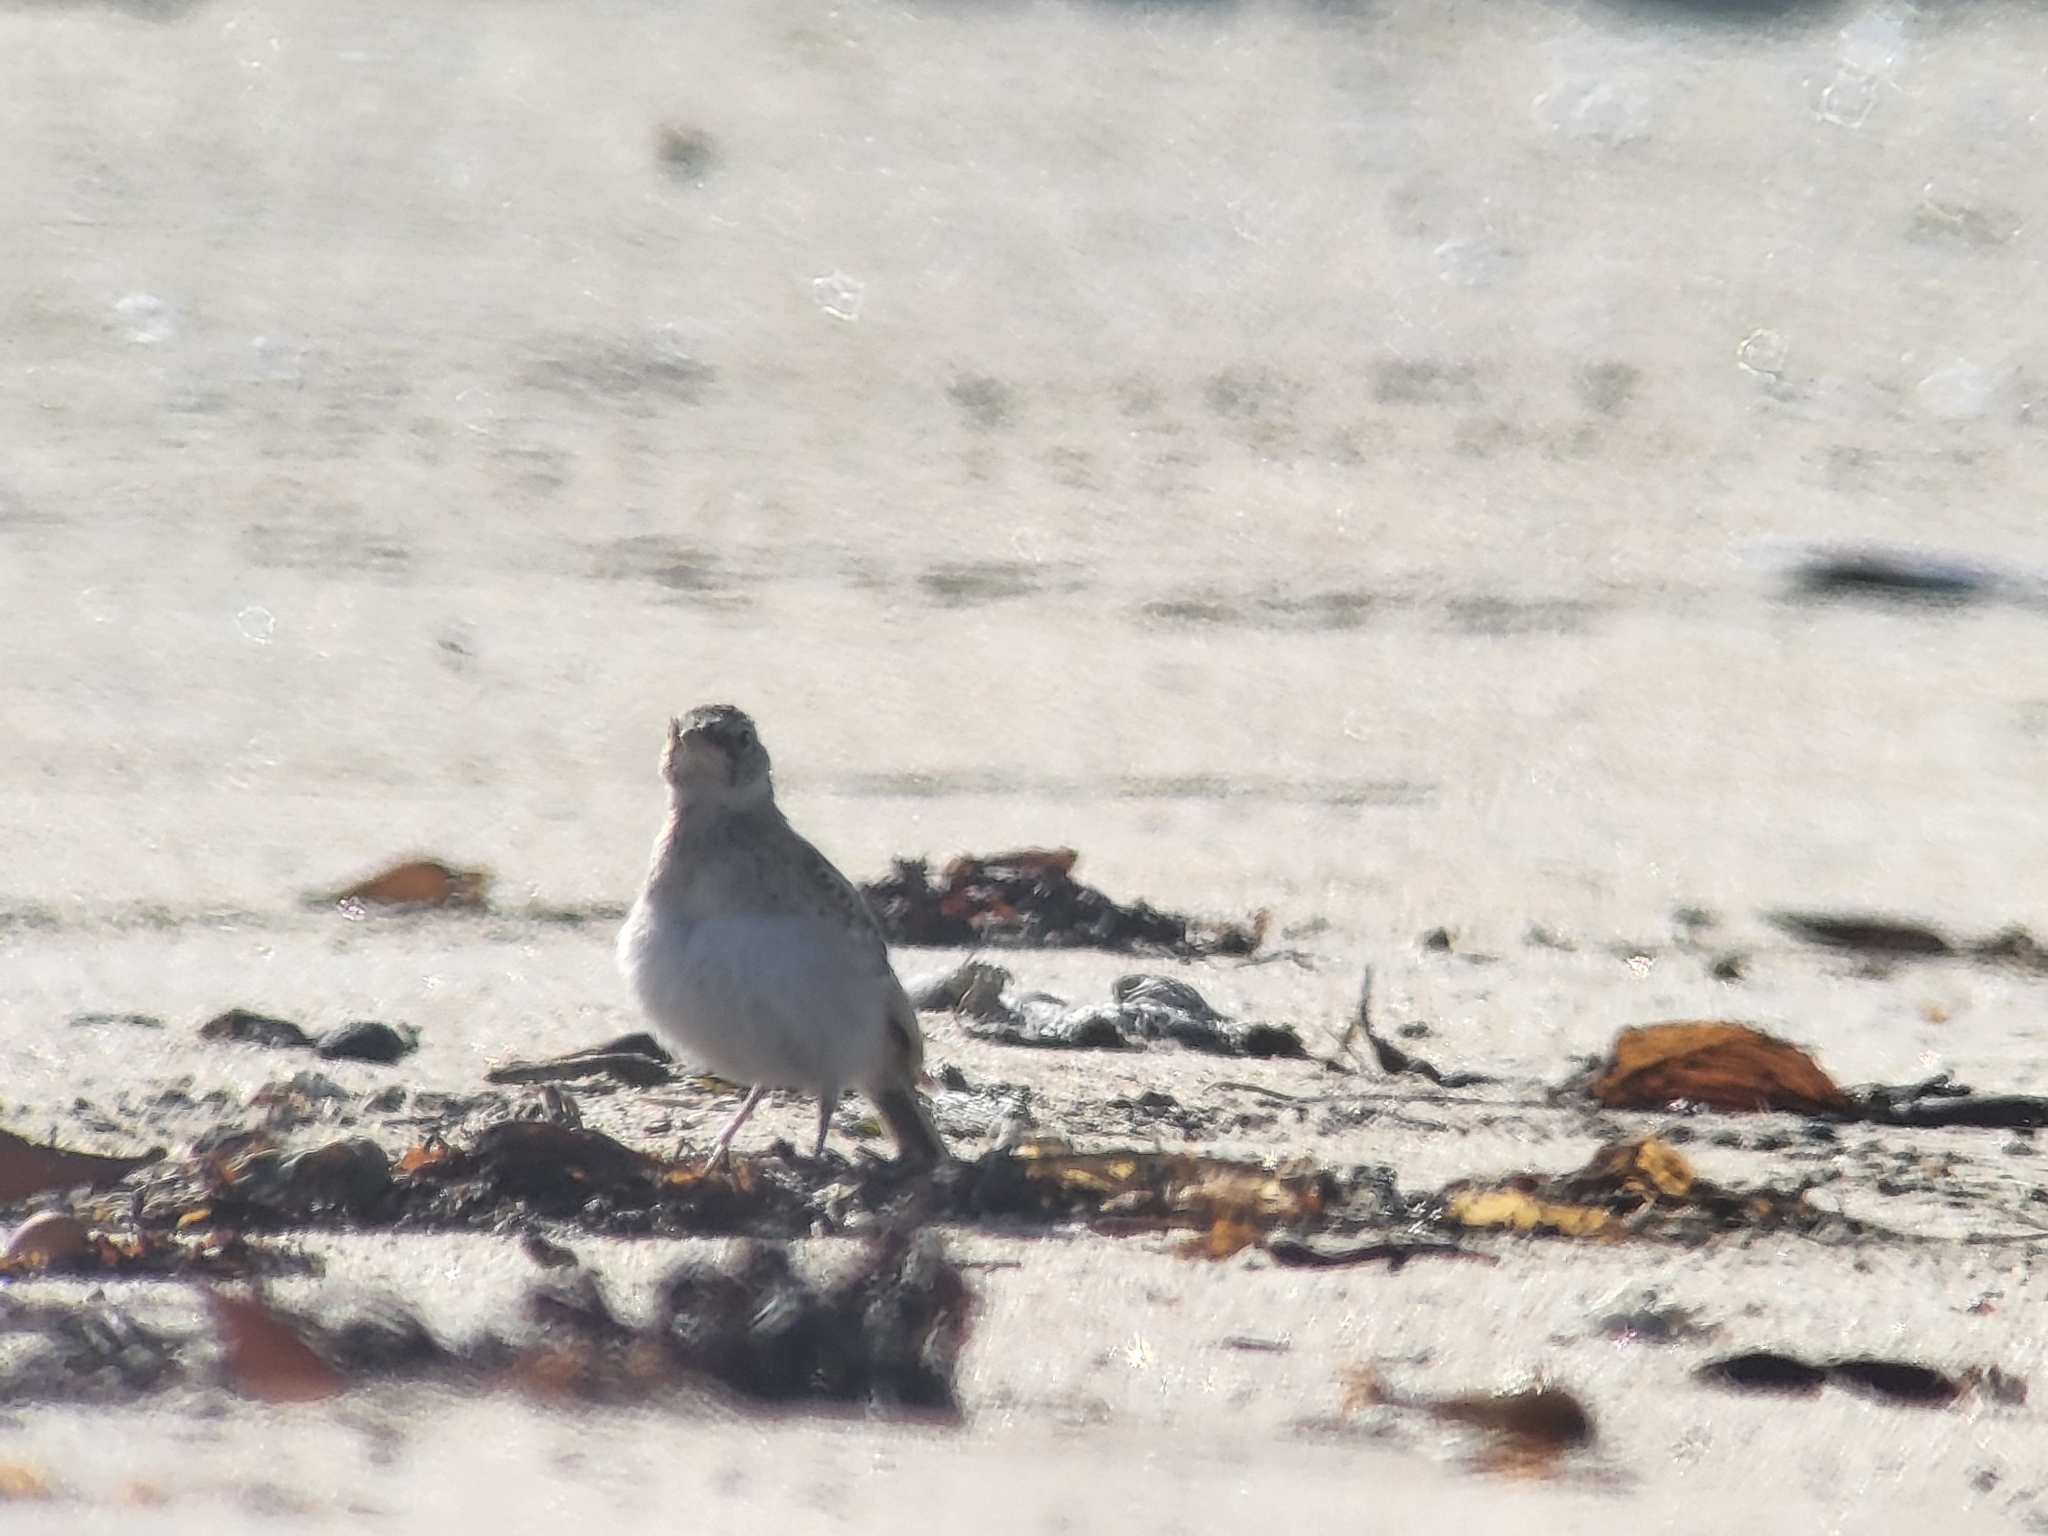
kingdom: Animalia
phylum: Chordata
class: Aves
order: Passeriformes
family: Alaudidae
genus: Eremophila
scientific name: Eremophila alpestris
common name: Horned lark
